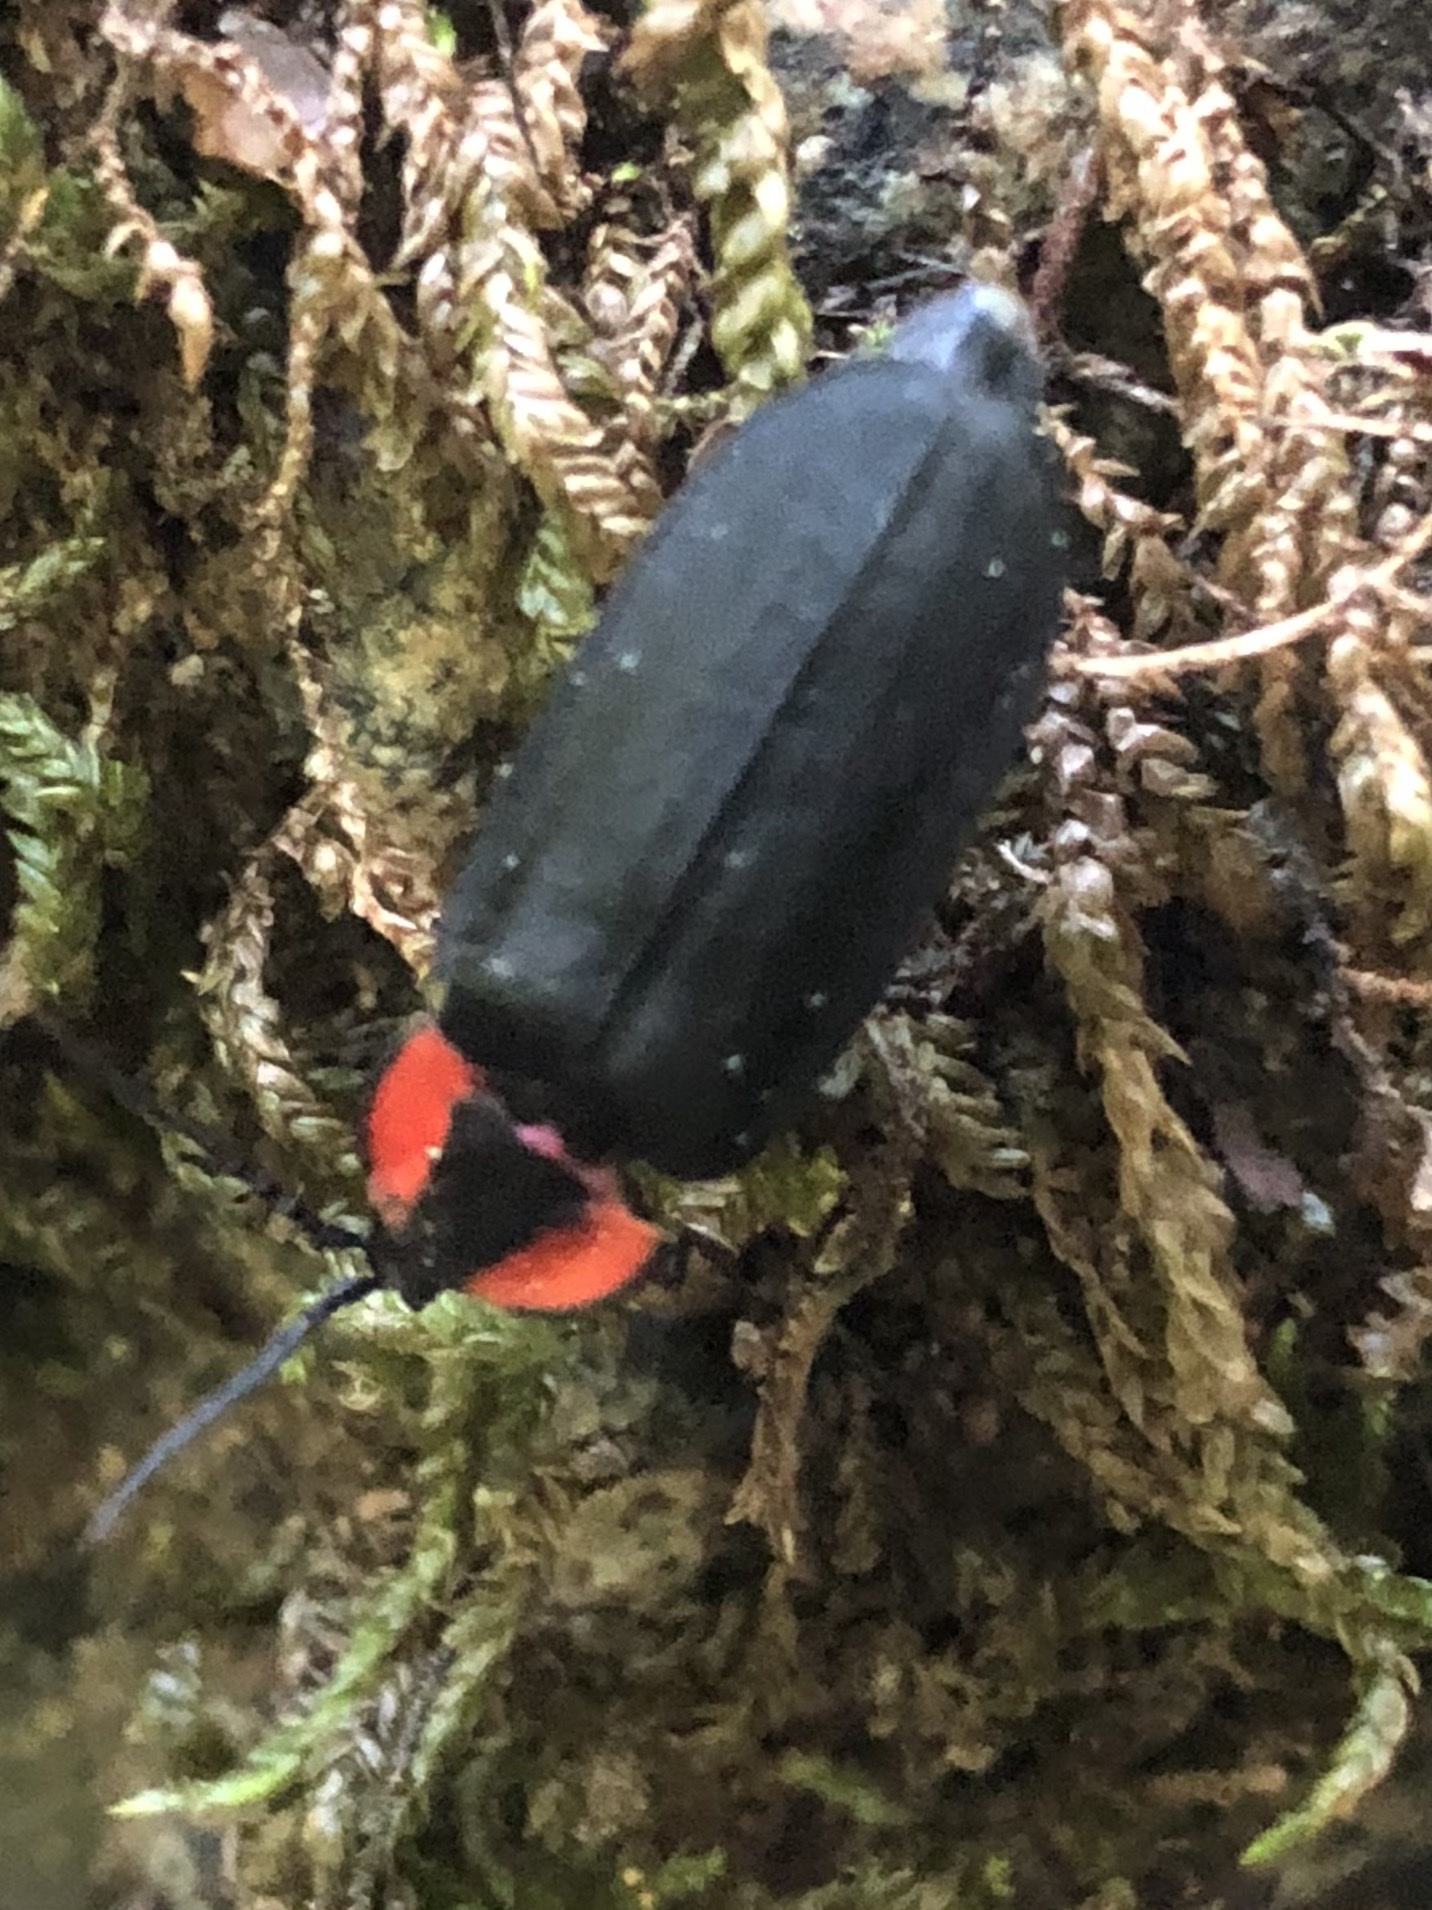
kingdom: Animalia
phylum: Arthropoda
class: Insecta
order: Coleoptera
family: Lampyridae
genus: Photinus
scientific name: Photinus californica
